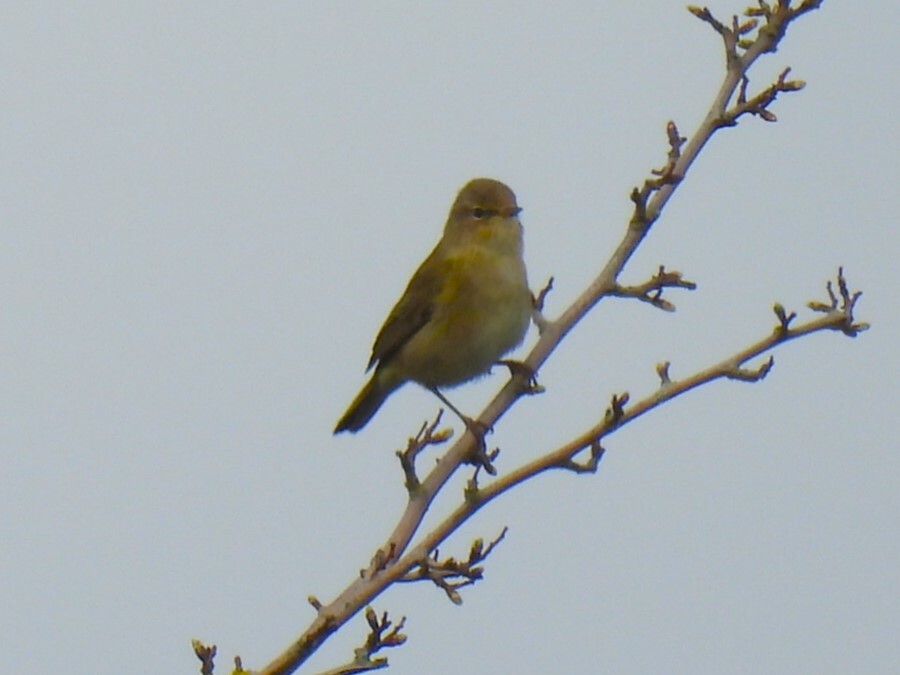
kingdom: Animalia
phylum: Chordata
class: Aves
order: Passeriformes
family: Phylloscopidae
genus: Phylloscopus
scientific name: Phylloscopus collybita
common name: Common chiffchaff
